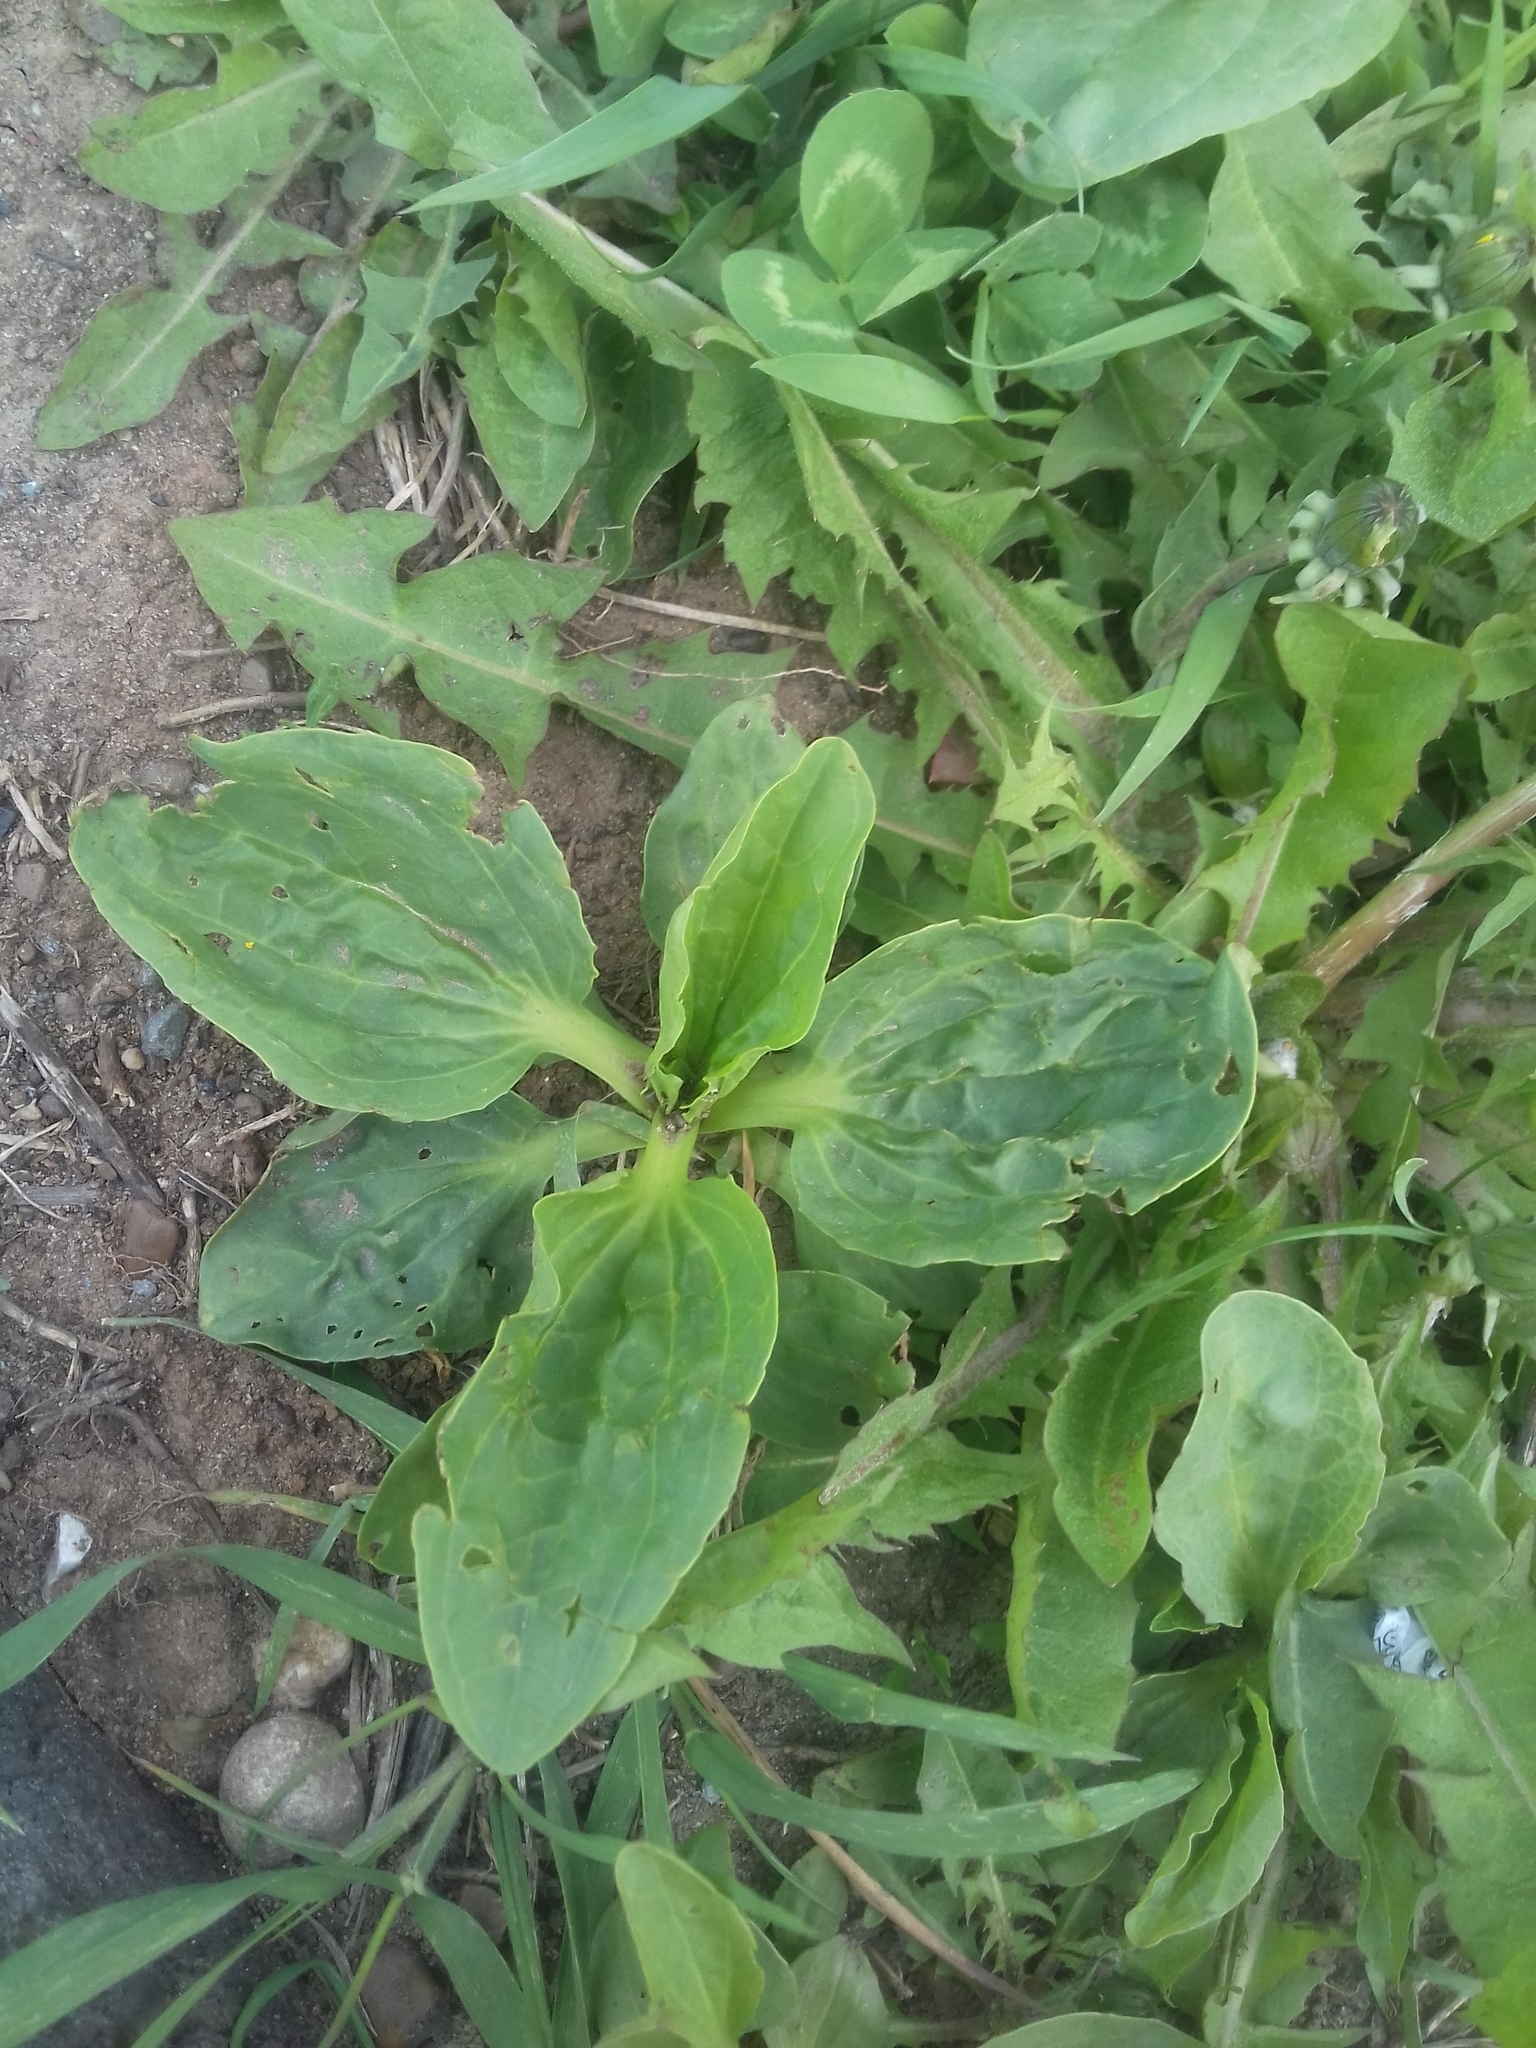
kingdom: Plantae
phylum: Tracheophyta
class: Magnoliopsida
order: Lamiales
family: Plantaginaceae
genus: Plantago
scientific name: Plantago major
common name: Common plantain
